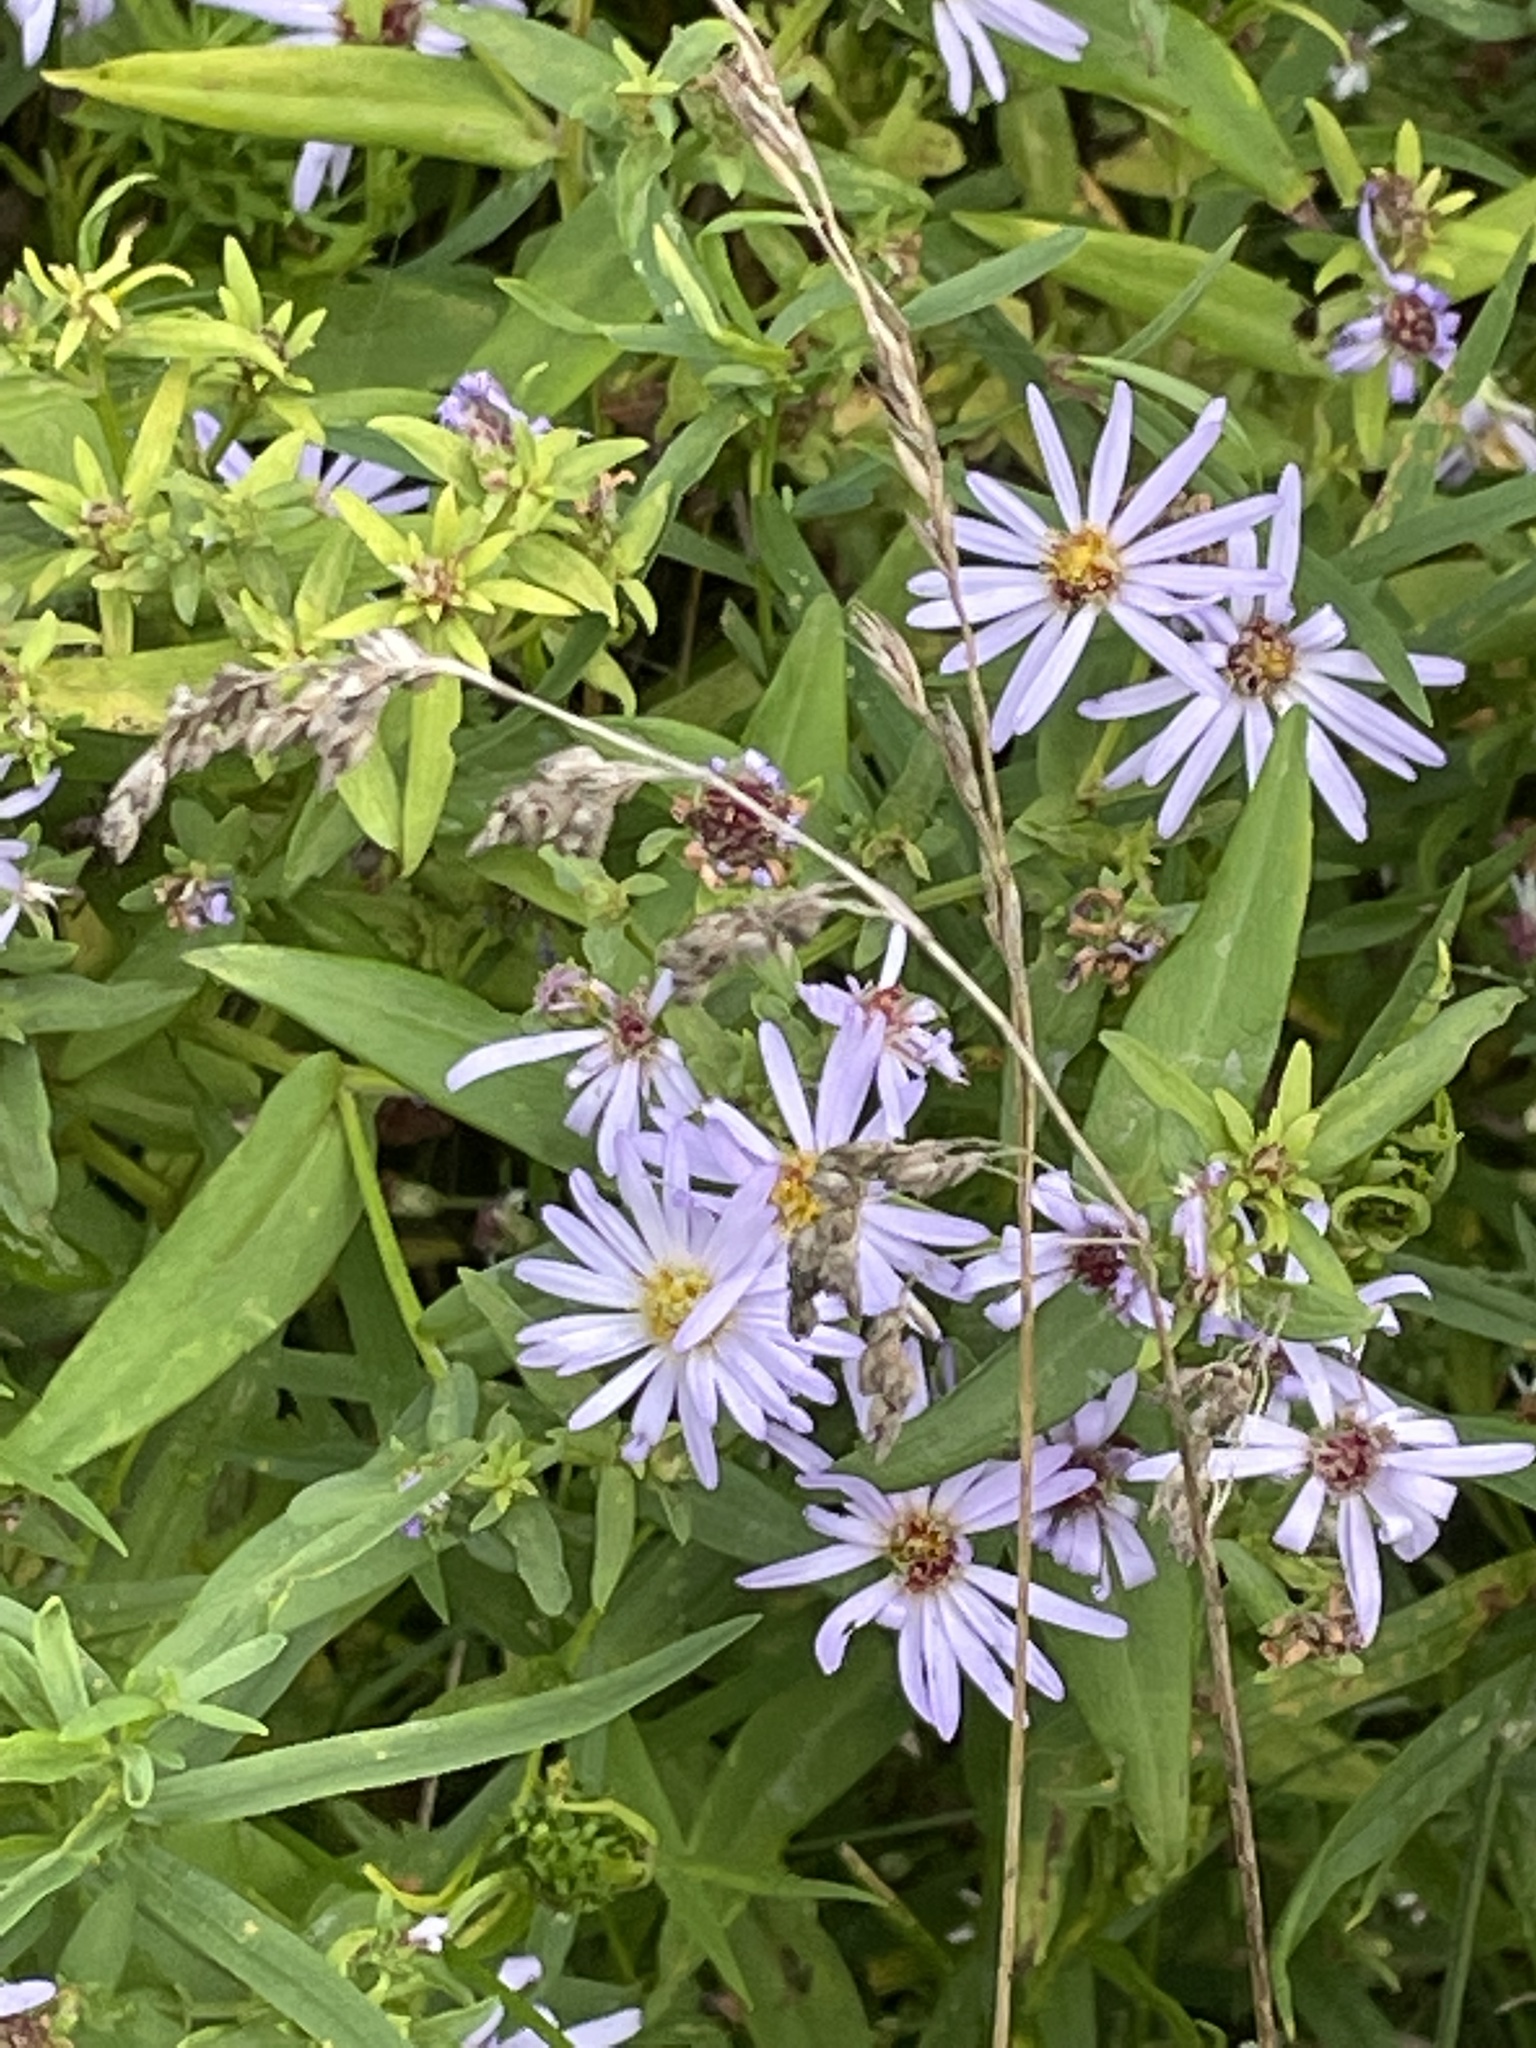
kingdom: Plantae
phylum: Tracheophyta
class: Magnoliopsida
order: Asterales
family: Asteraceae
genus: Symphyotrichum
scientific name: Symphyotrichum novi-belgii
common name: Michaelmas daisy
